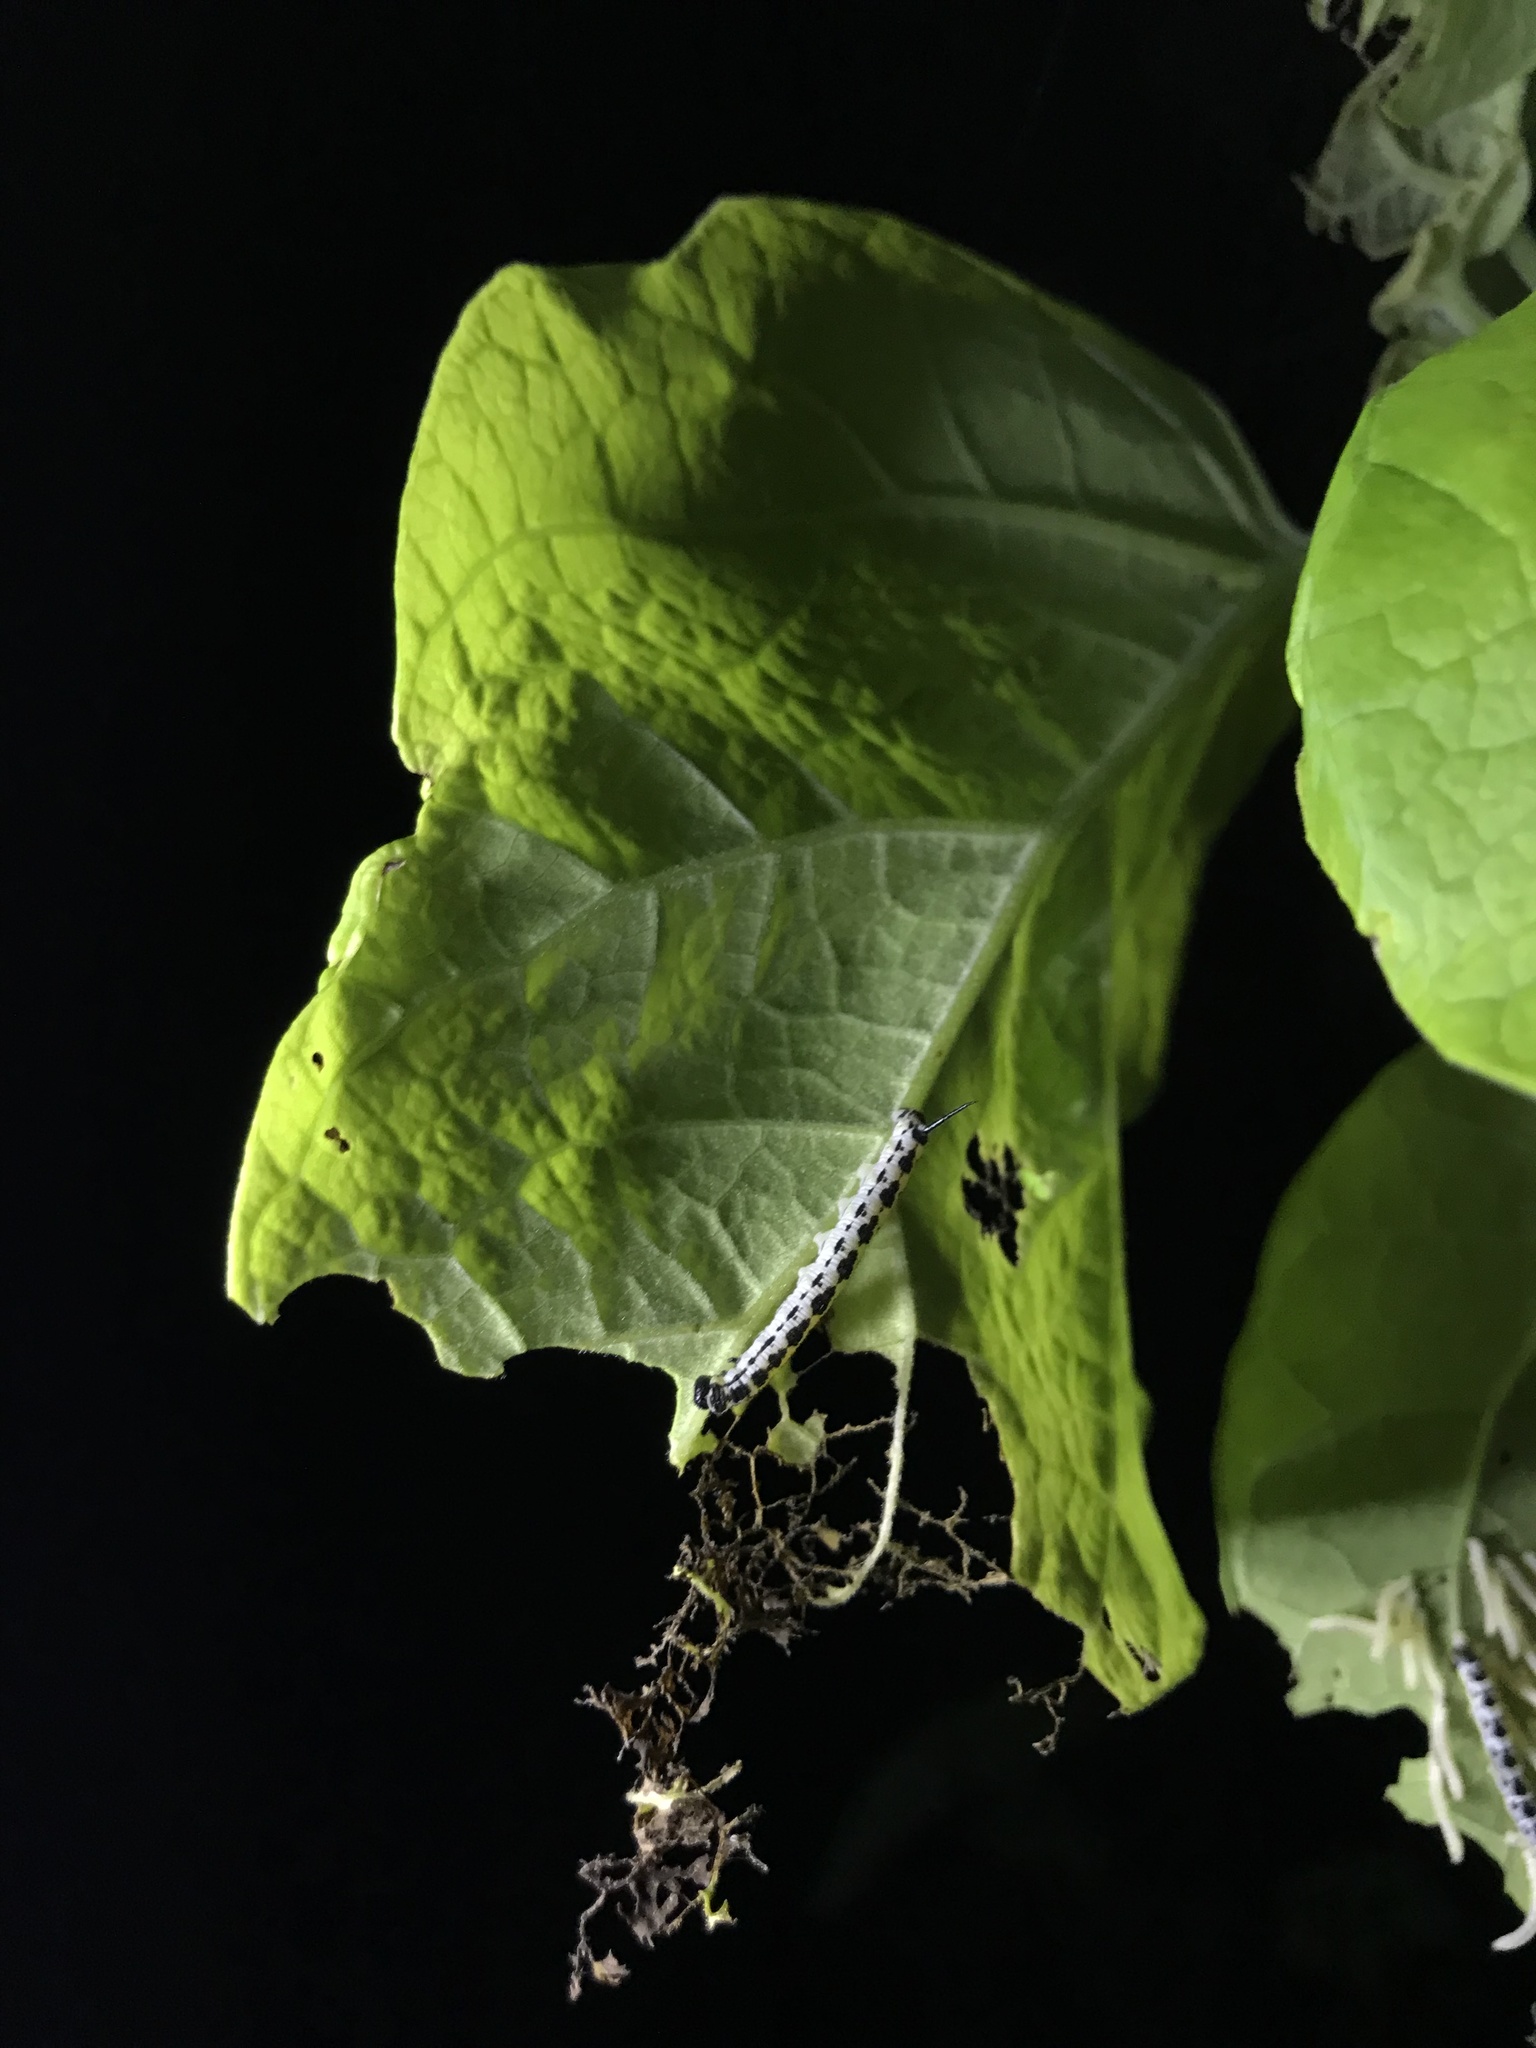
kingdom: Animalia
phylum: Arthropoda
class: Insecta
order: Lepidoptera
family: Sphingidae
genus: Ceratomia
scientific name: Ceratomia catalpae
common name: Catalpa hornworm
